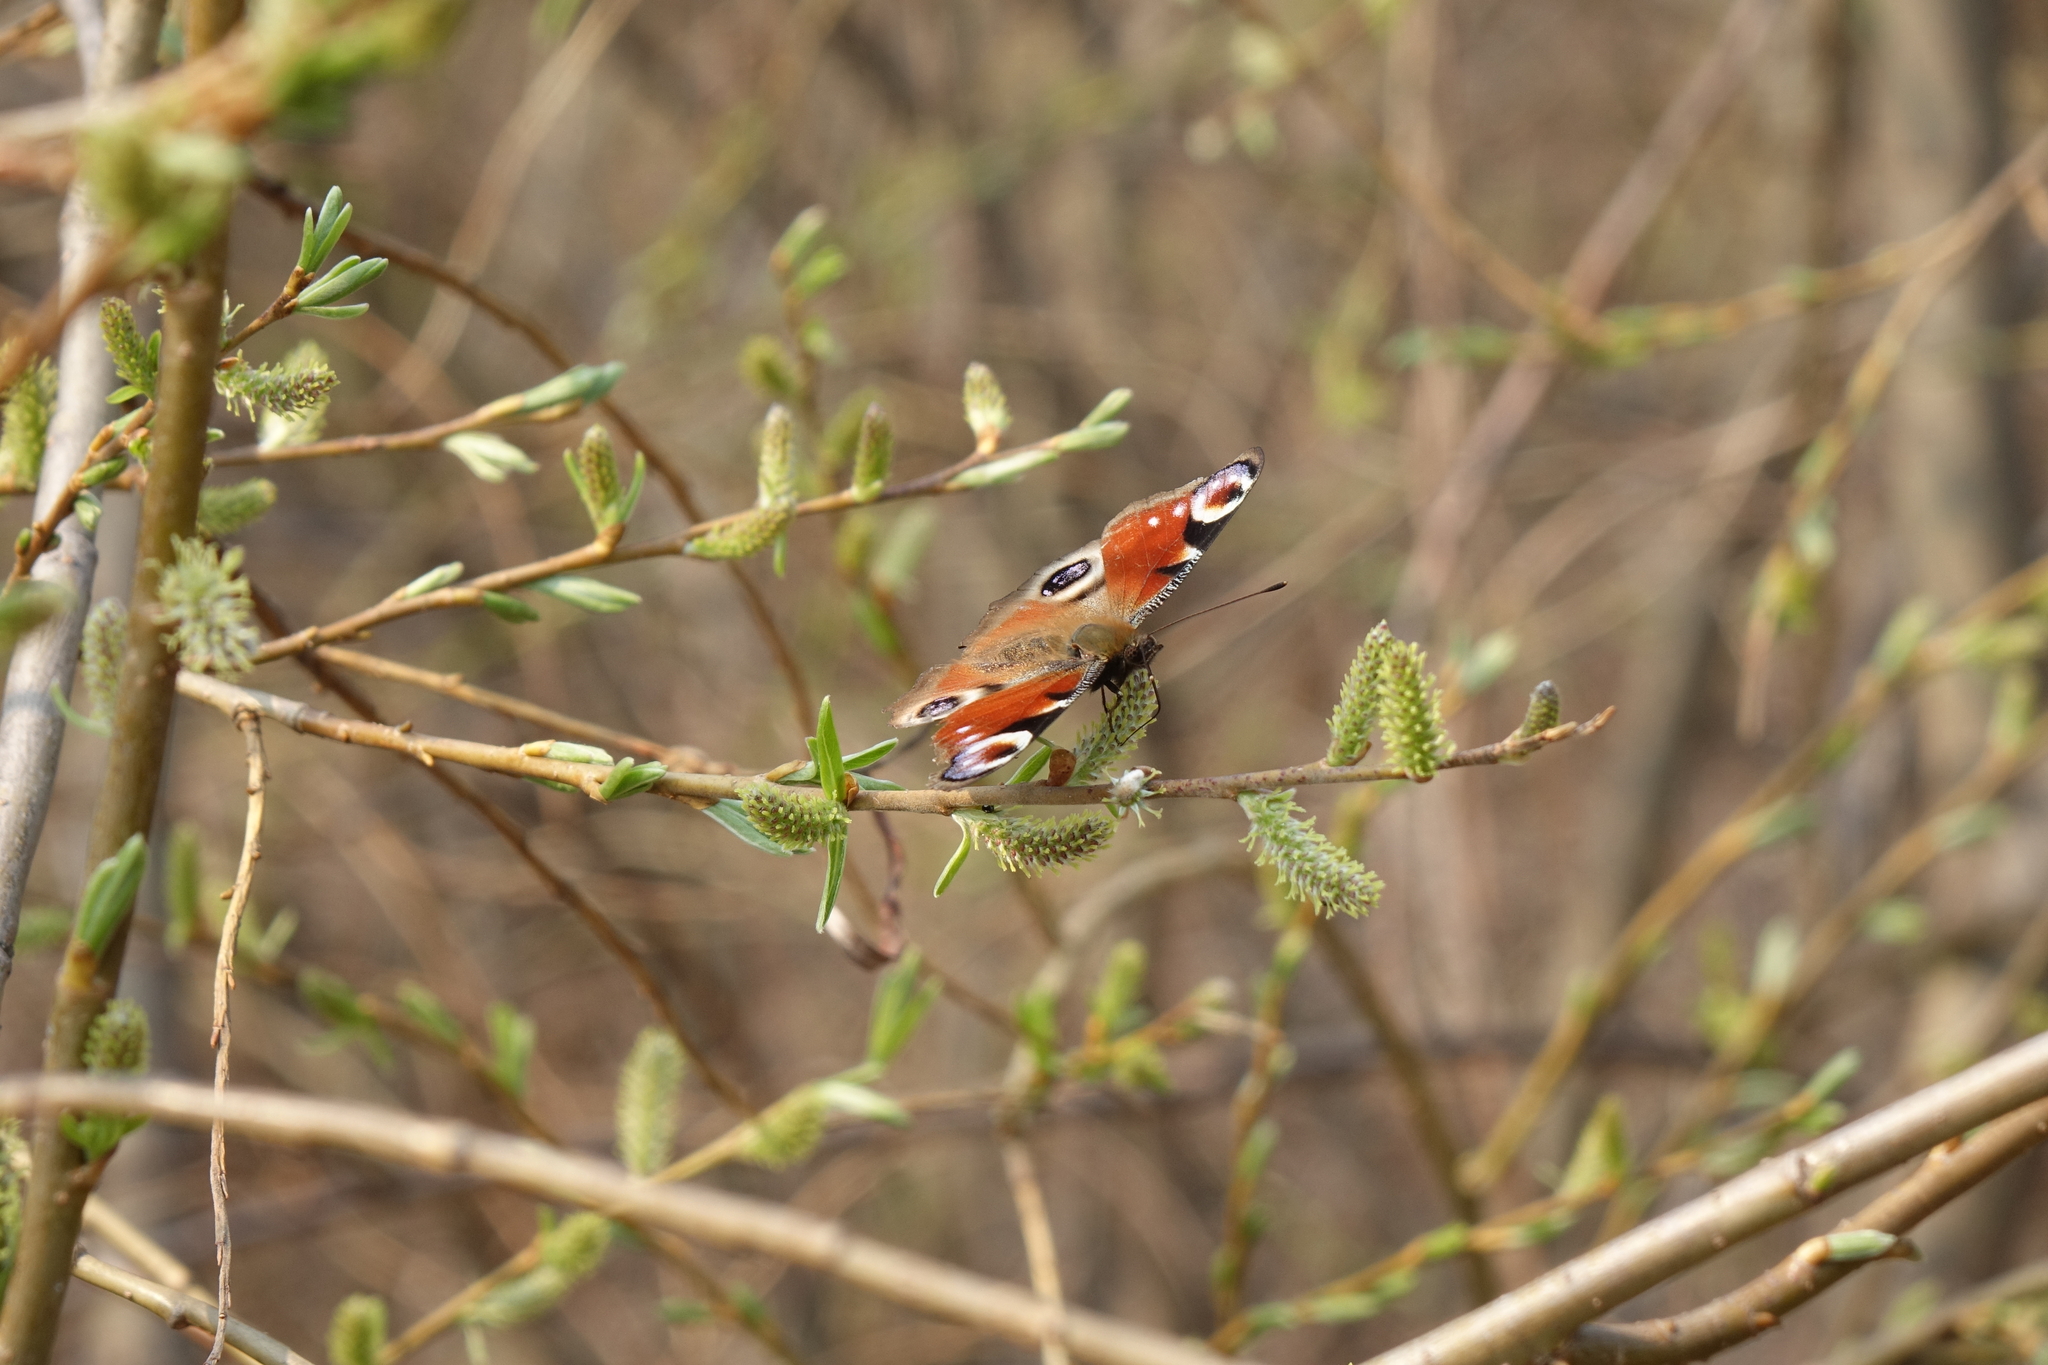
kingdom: Animalia
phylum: Arthropoda
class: Insecta
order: Lepidoptera
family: Nymphalidae
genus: Aglais
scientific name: Aglais io
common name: Peacock
